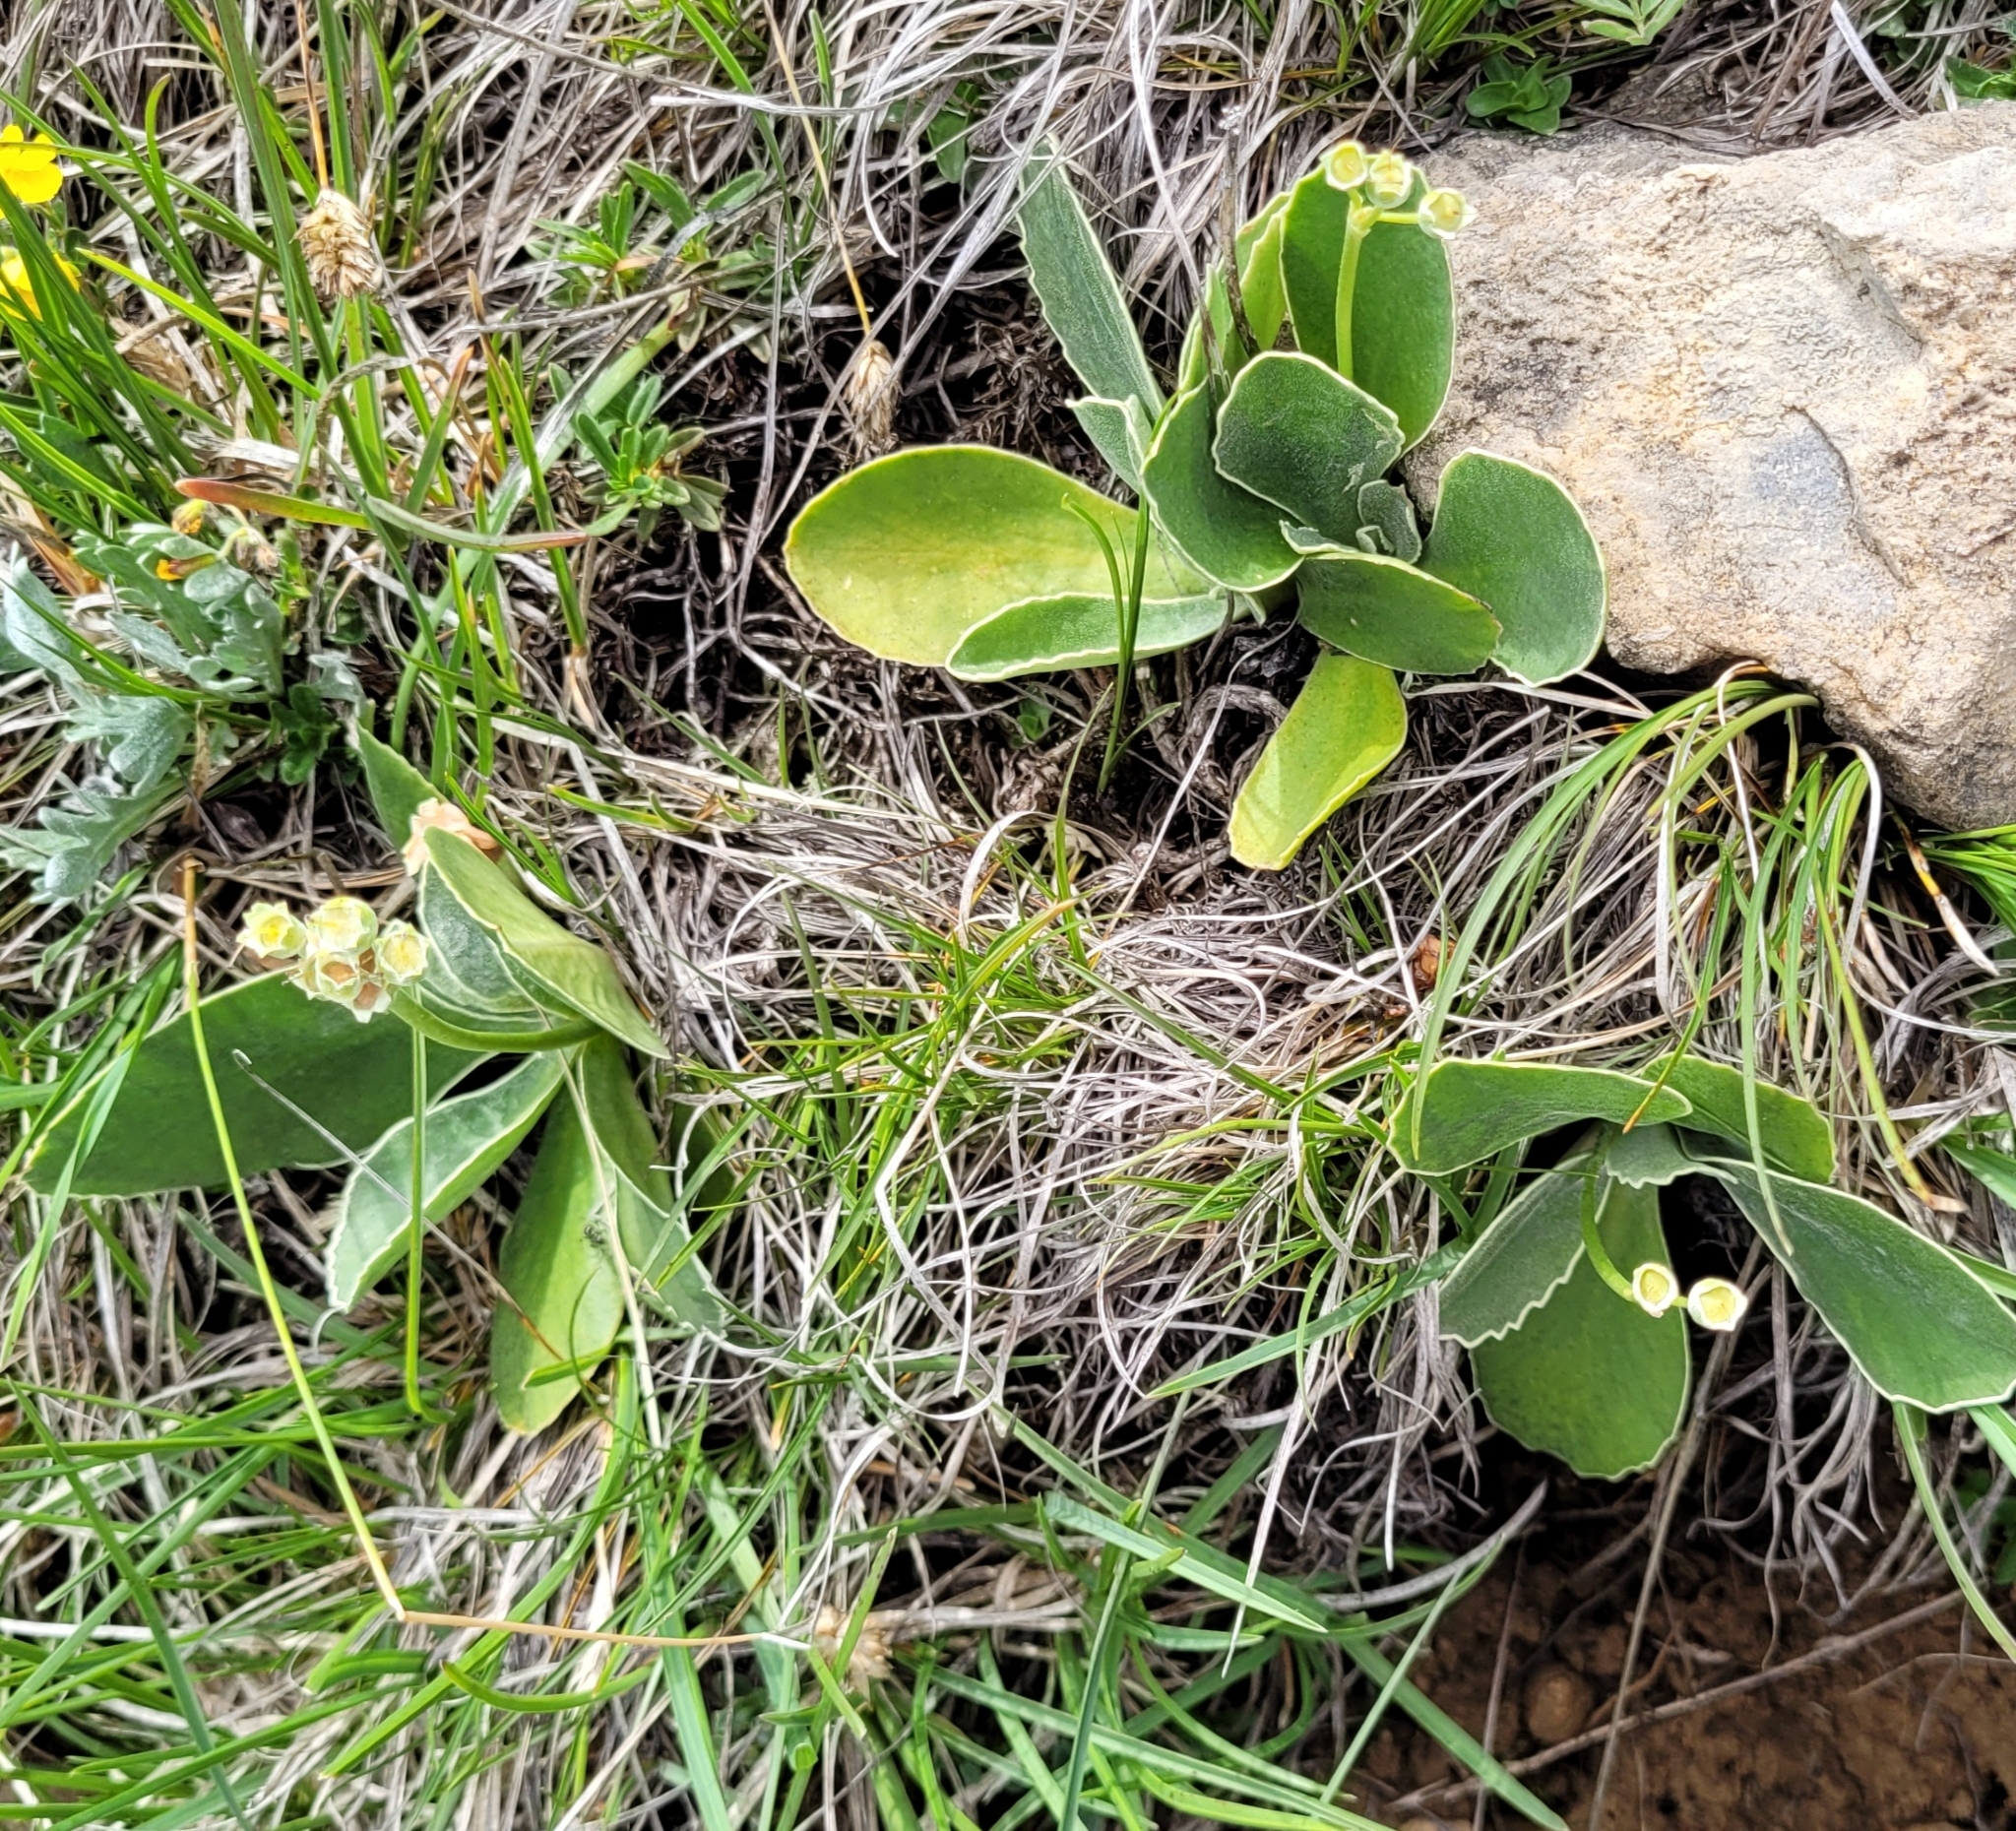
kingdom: Plantae
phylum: Tracheophyta
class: Magnoliopsida
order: Ericales
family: Primulaceae
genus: Primula
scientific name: Primula auricula
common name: Auricula
